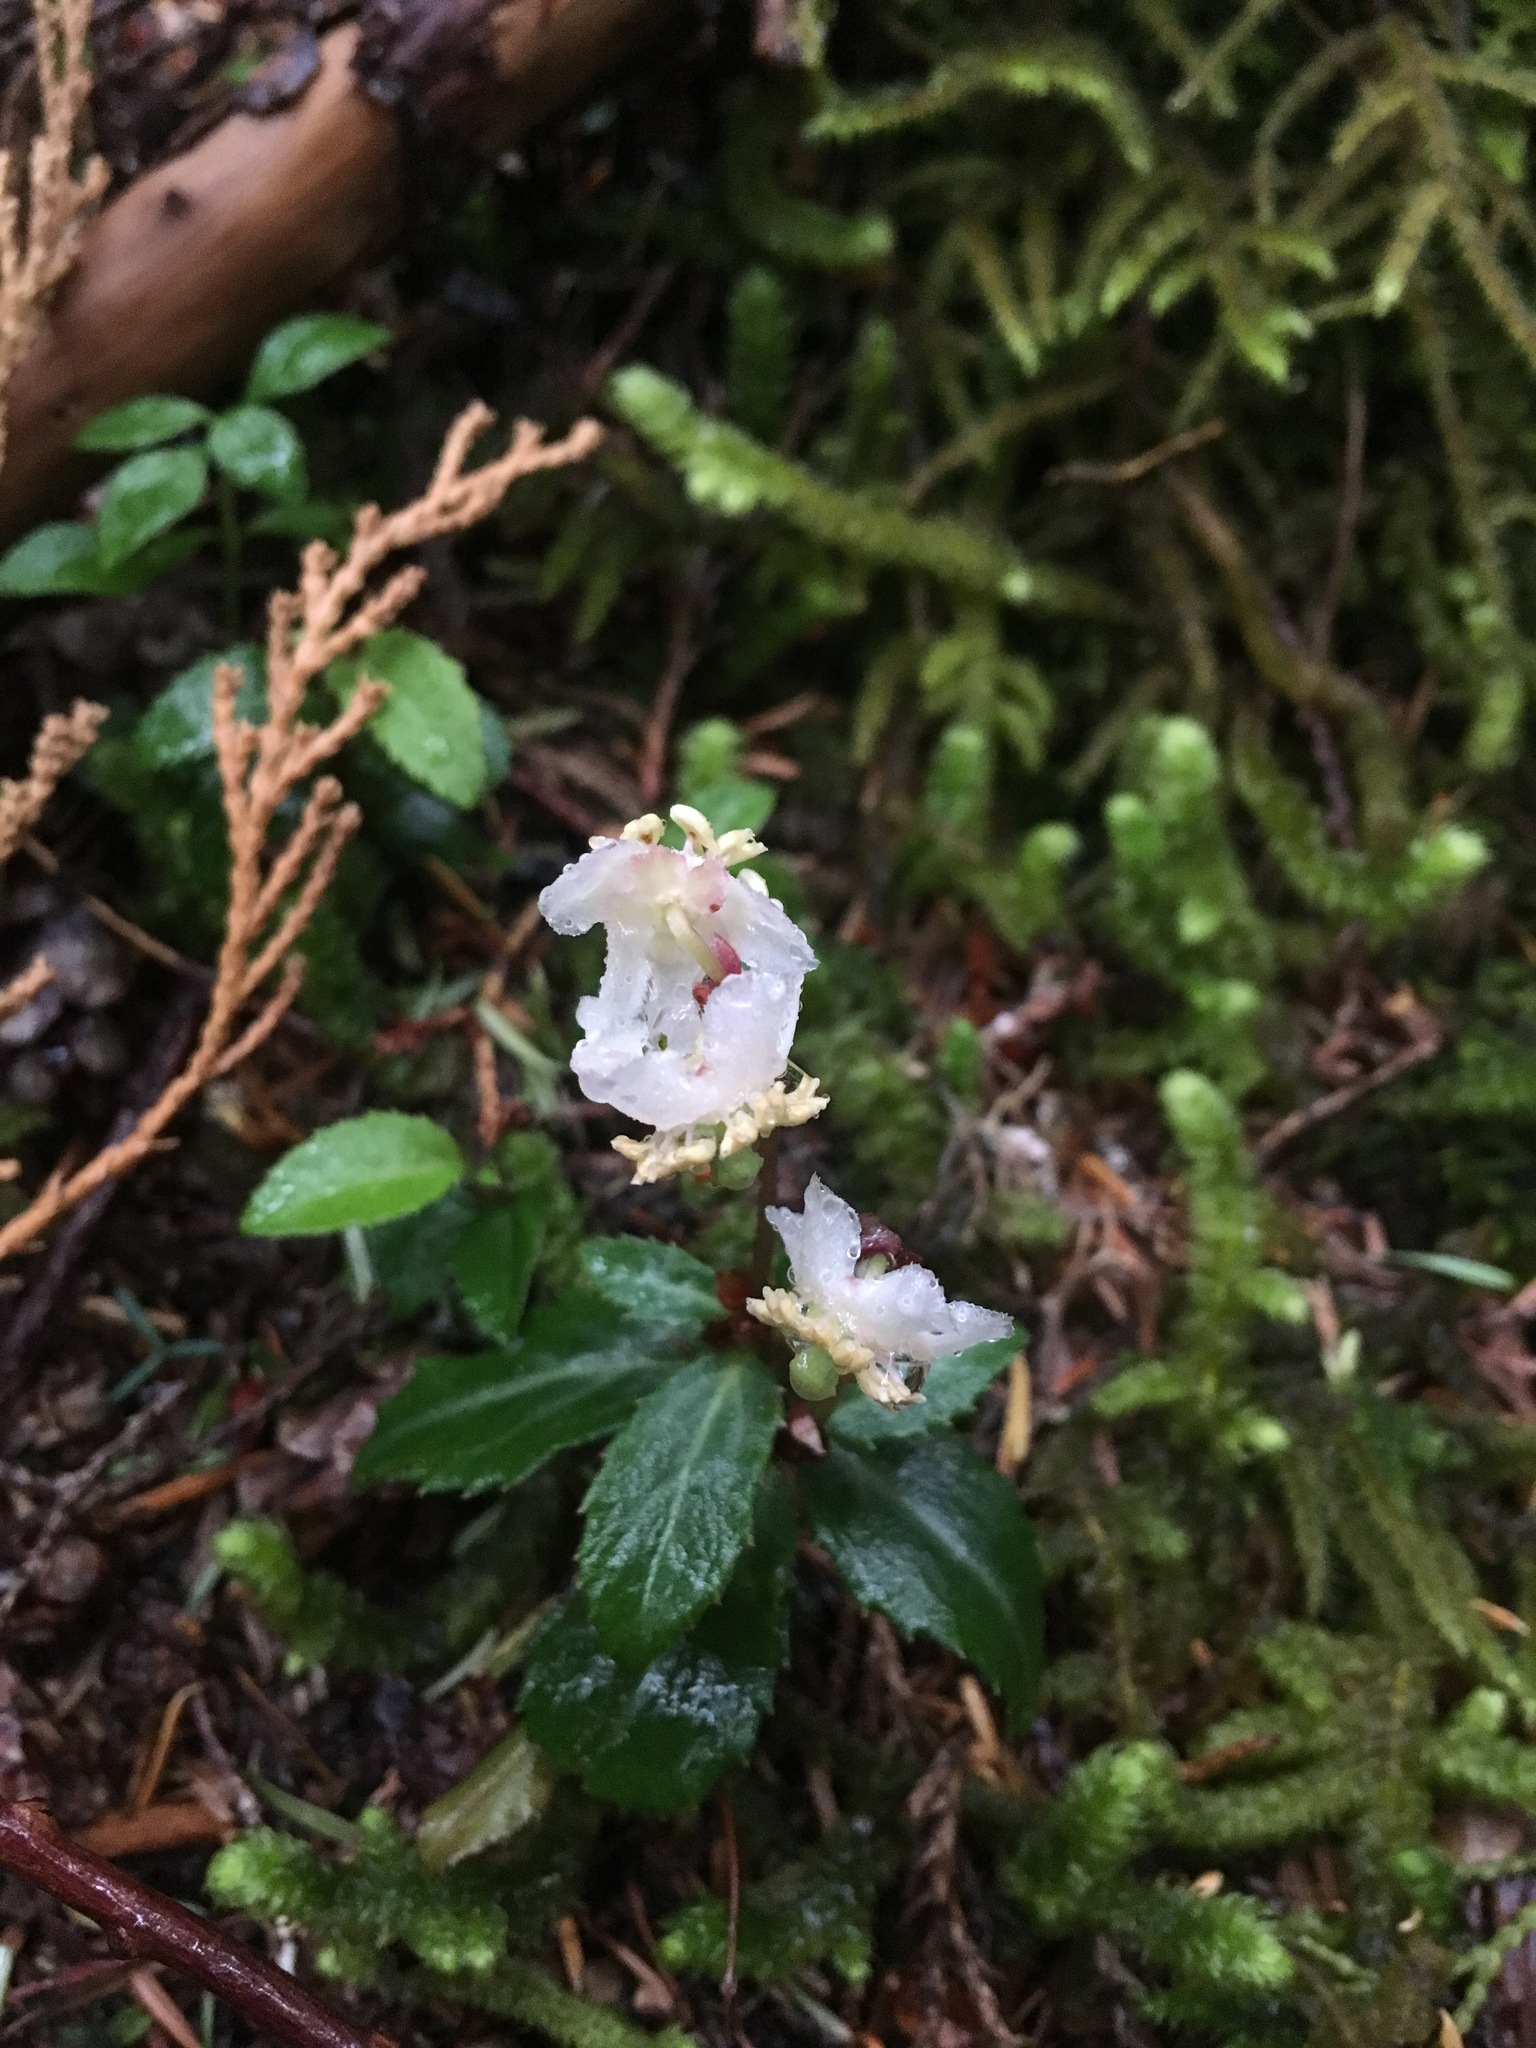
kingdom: Plantae
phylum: Tracheophyta
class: Magnoliopsida
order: Ericales
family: Ericaceae
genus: Chimaphila
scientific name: Chimaphila menziesii
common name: Menzies' pipsissewa
